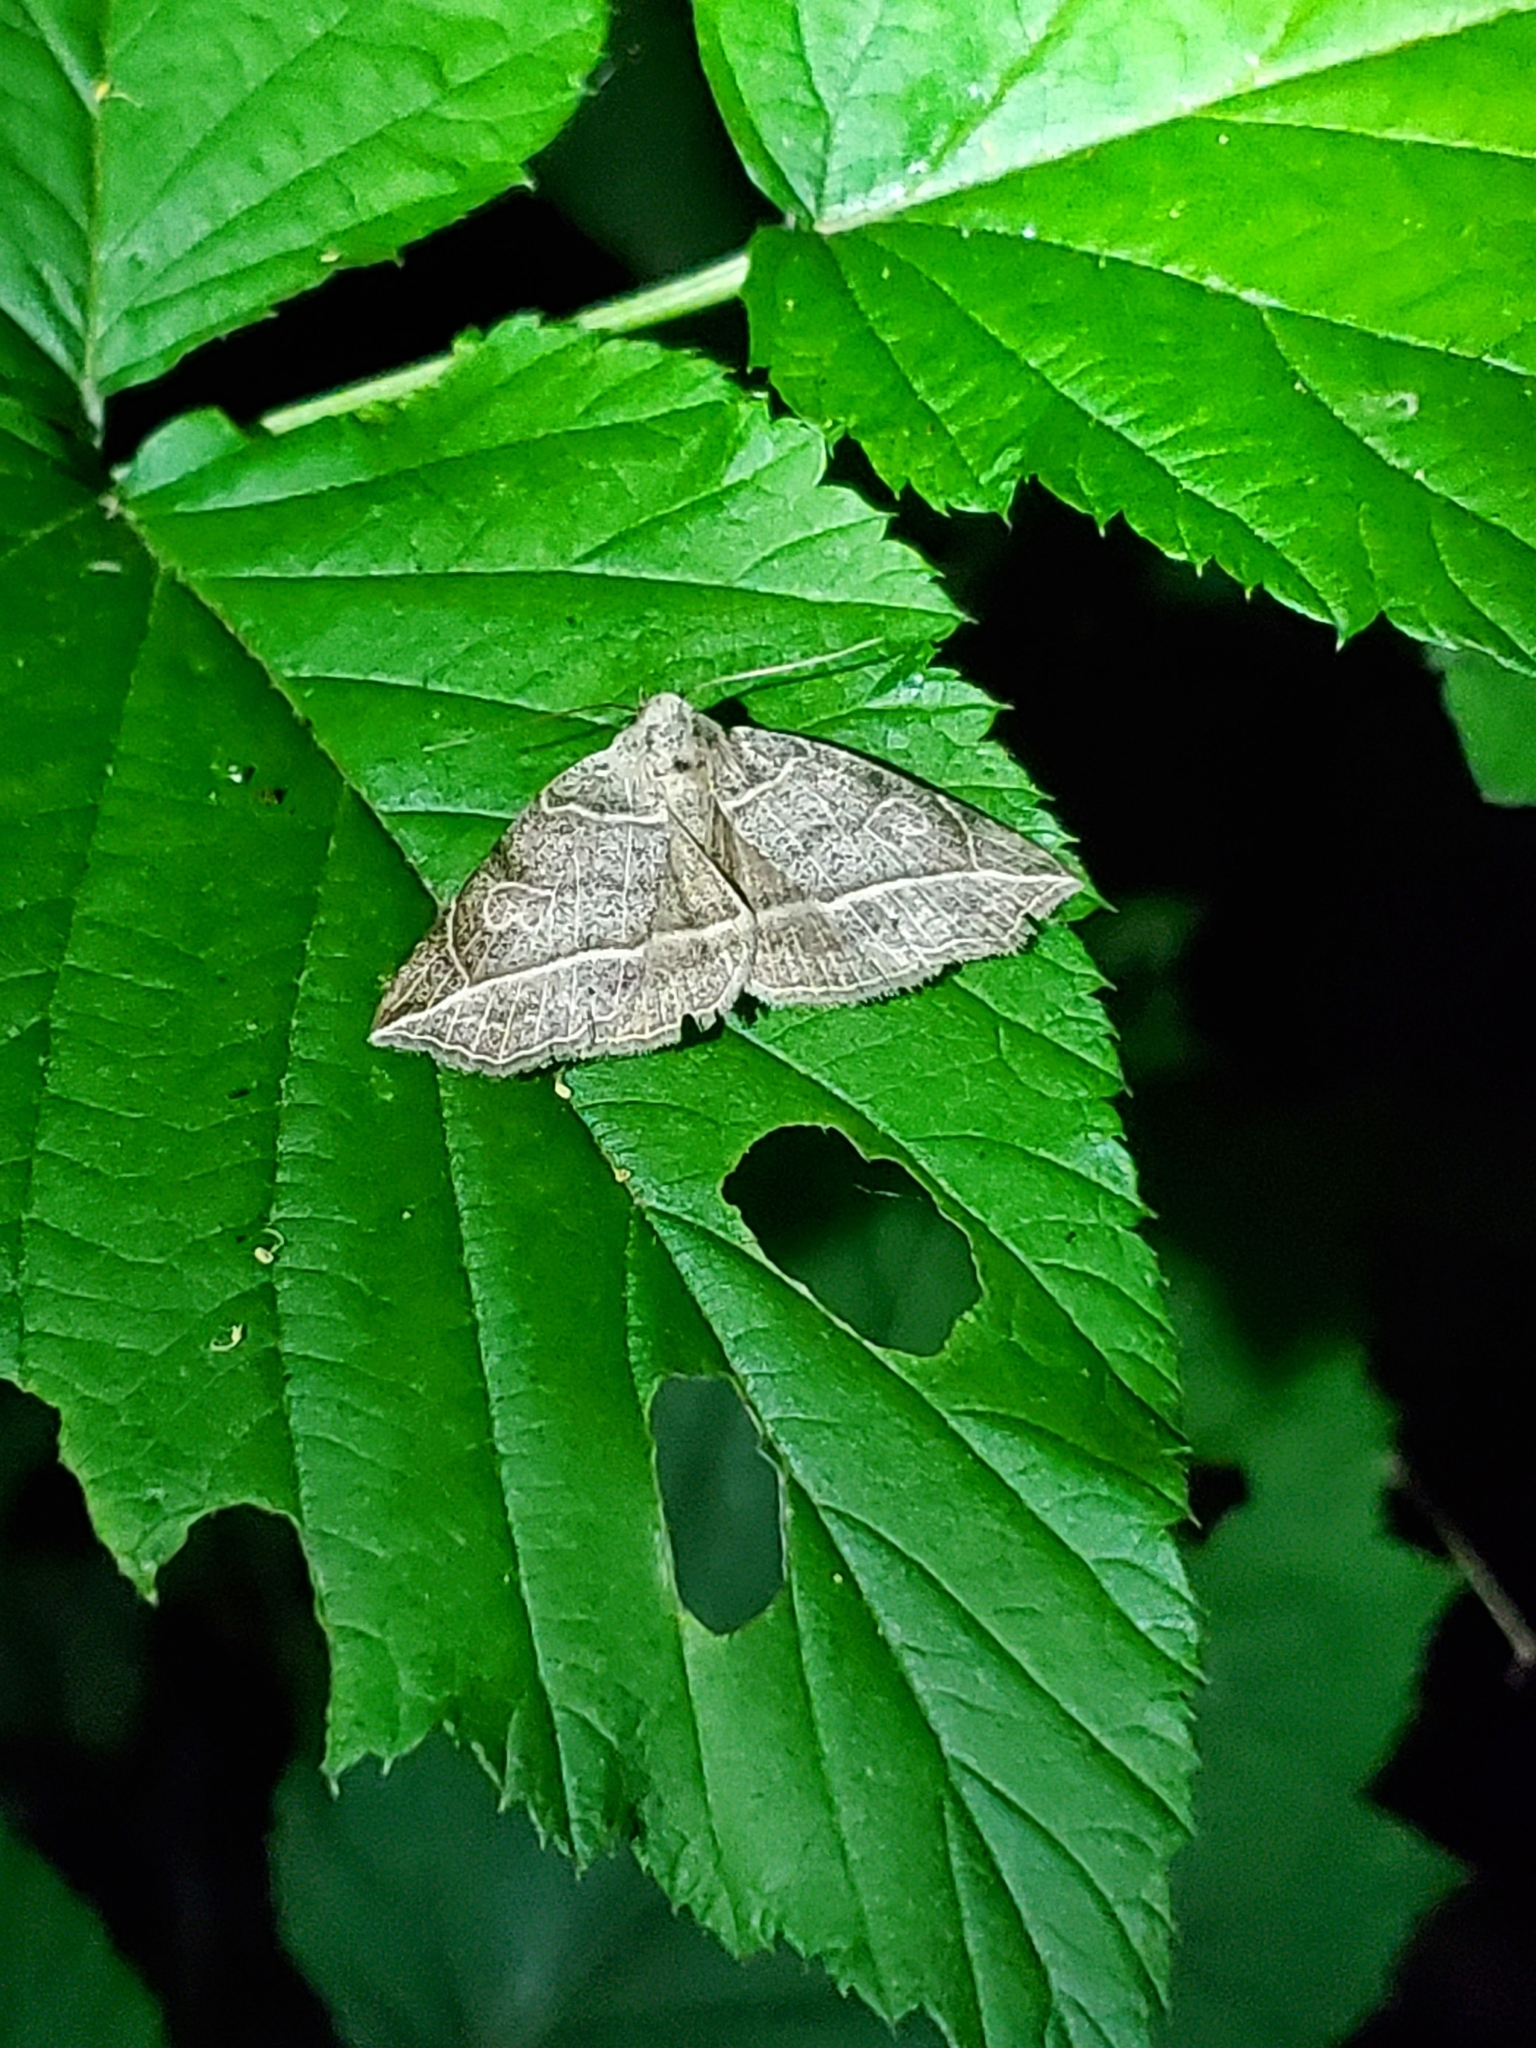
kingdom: Animalia
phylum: Arthropoda
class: Insecta
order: Lepidoptera
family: Erebidae
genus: Isogona
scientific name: Isogona tenuis
